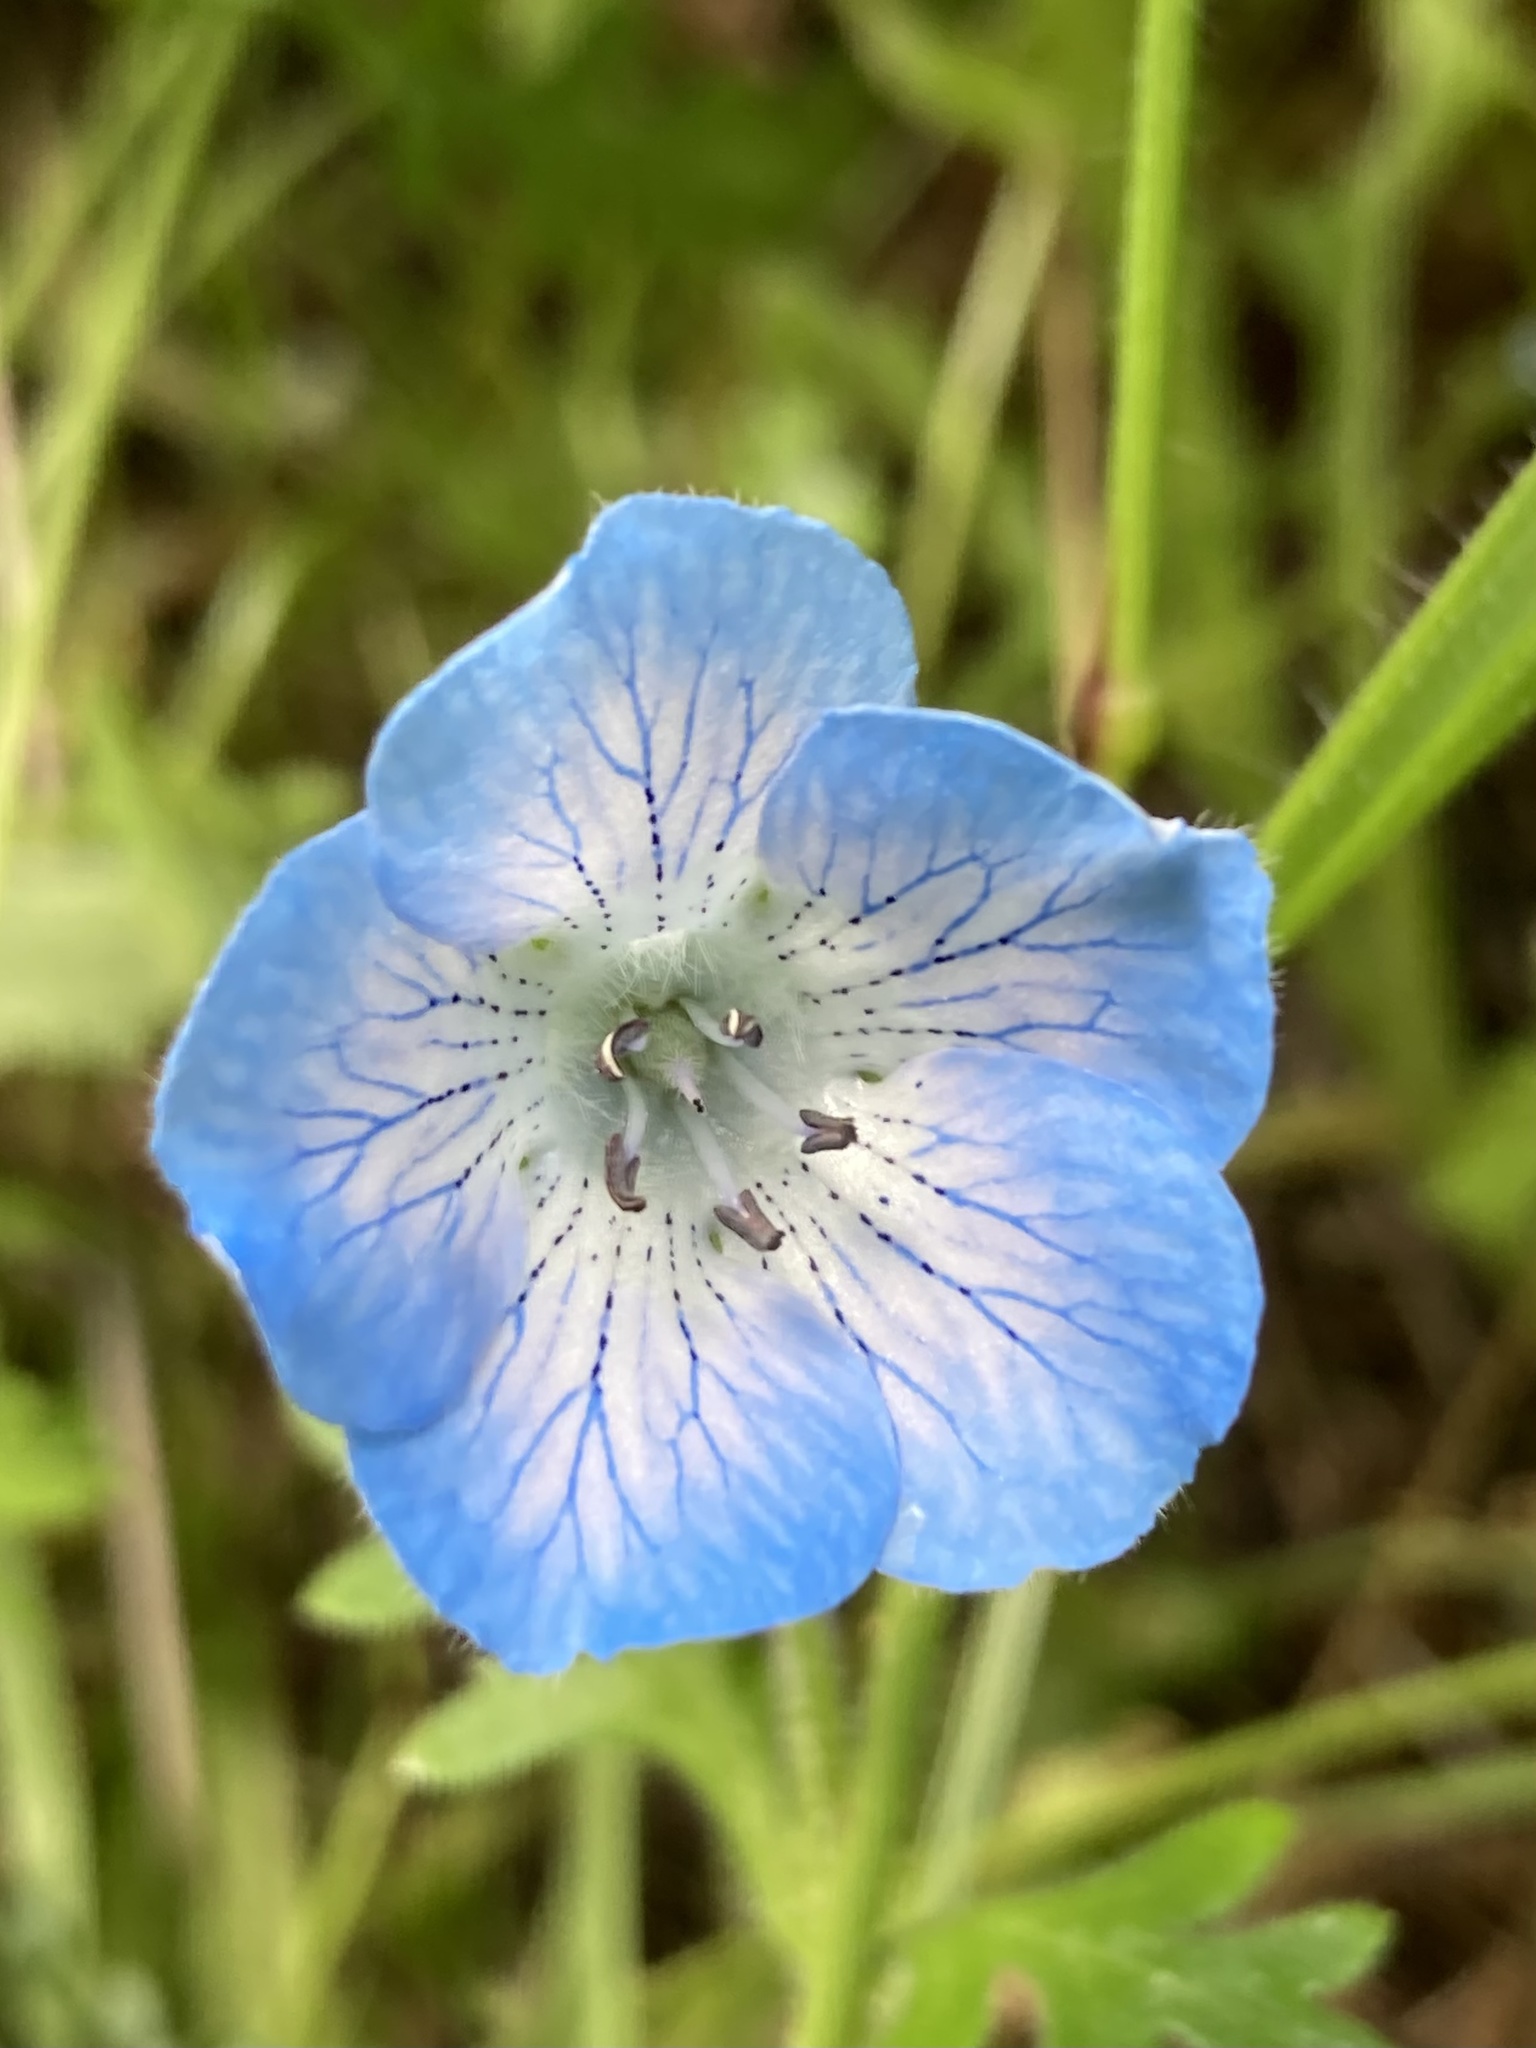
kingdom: Plantae
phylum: Tracheophyta
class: Magnoliopsida
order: Boraginales
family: Hydrophyllaceae
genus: Nemophila
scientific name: Nemophila menziesii
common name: Baby's-blue-eyes
